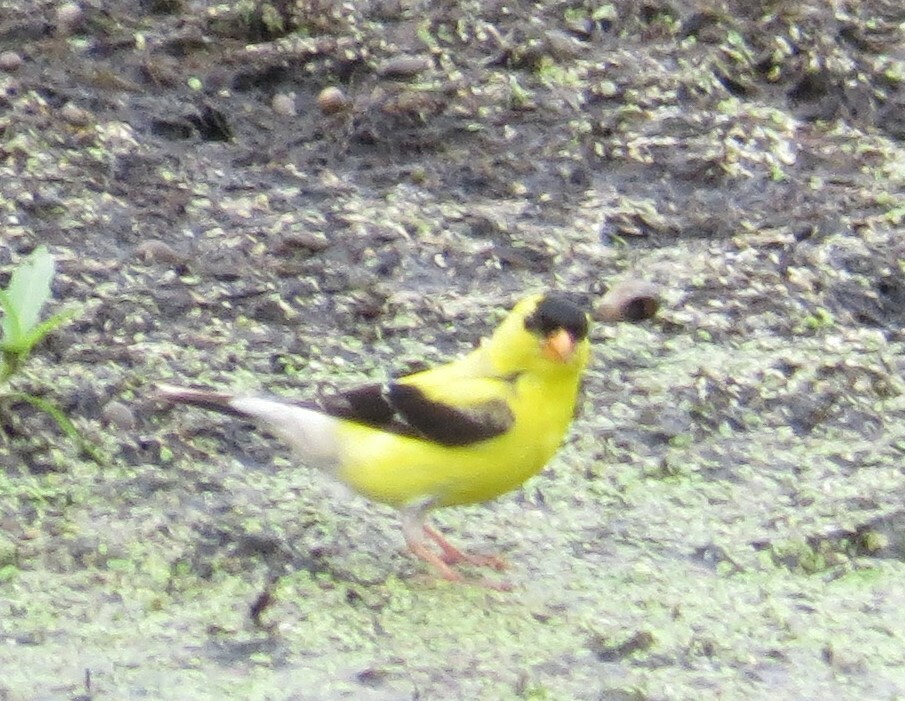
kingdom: Animalia
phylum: Chordata
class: Aves
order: Passeriformes
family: Fringillidae
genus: Spinus
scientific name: Spinus tristis
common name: American goldfinch
